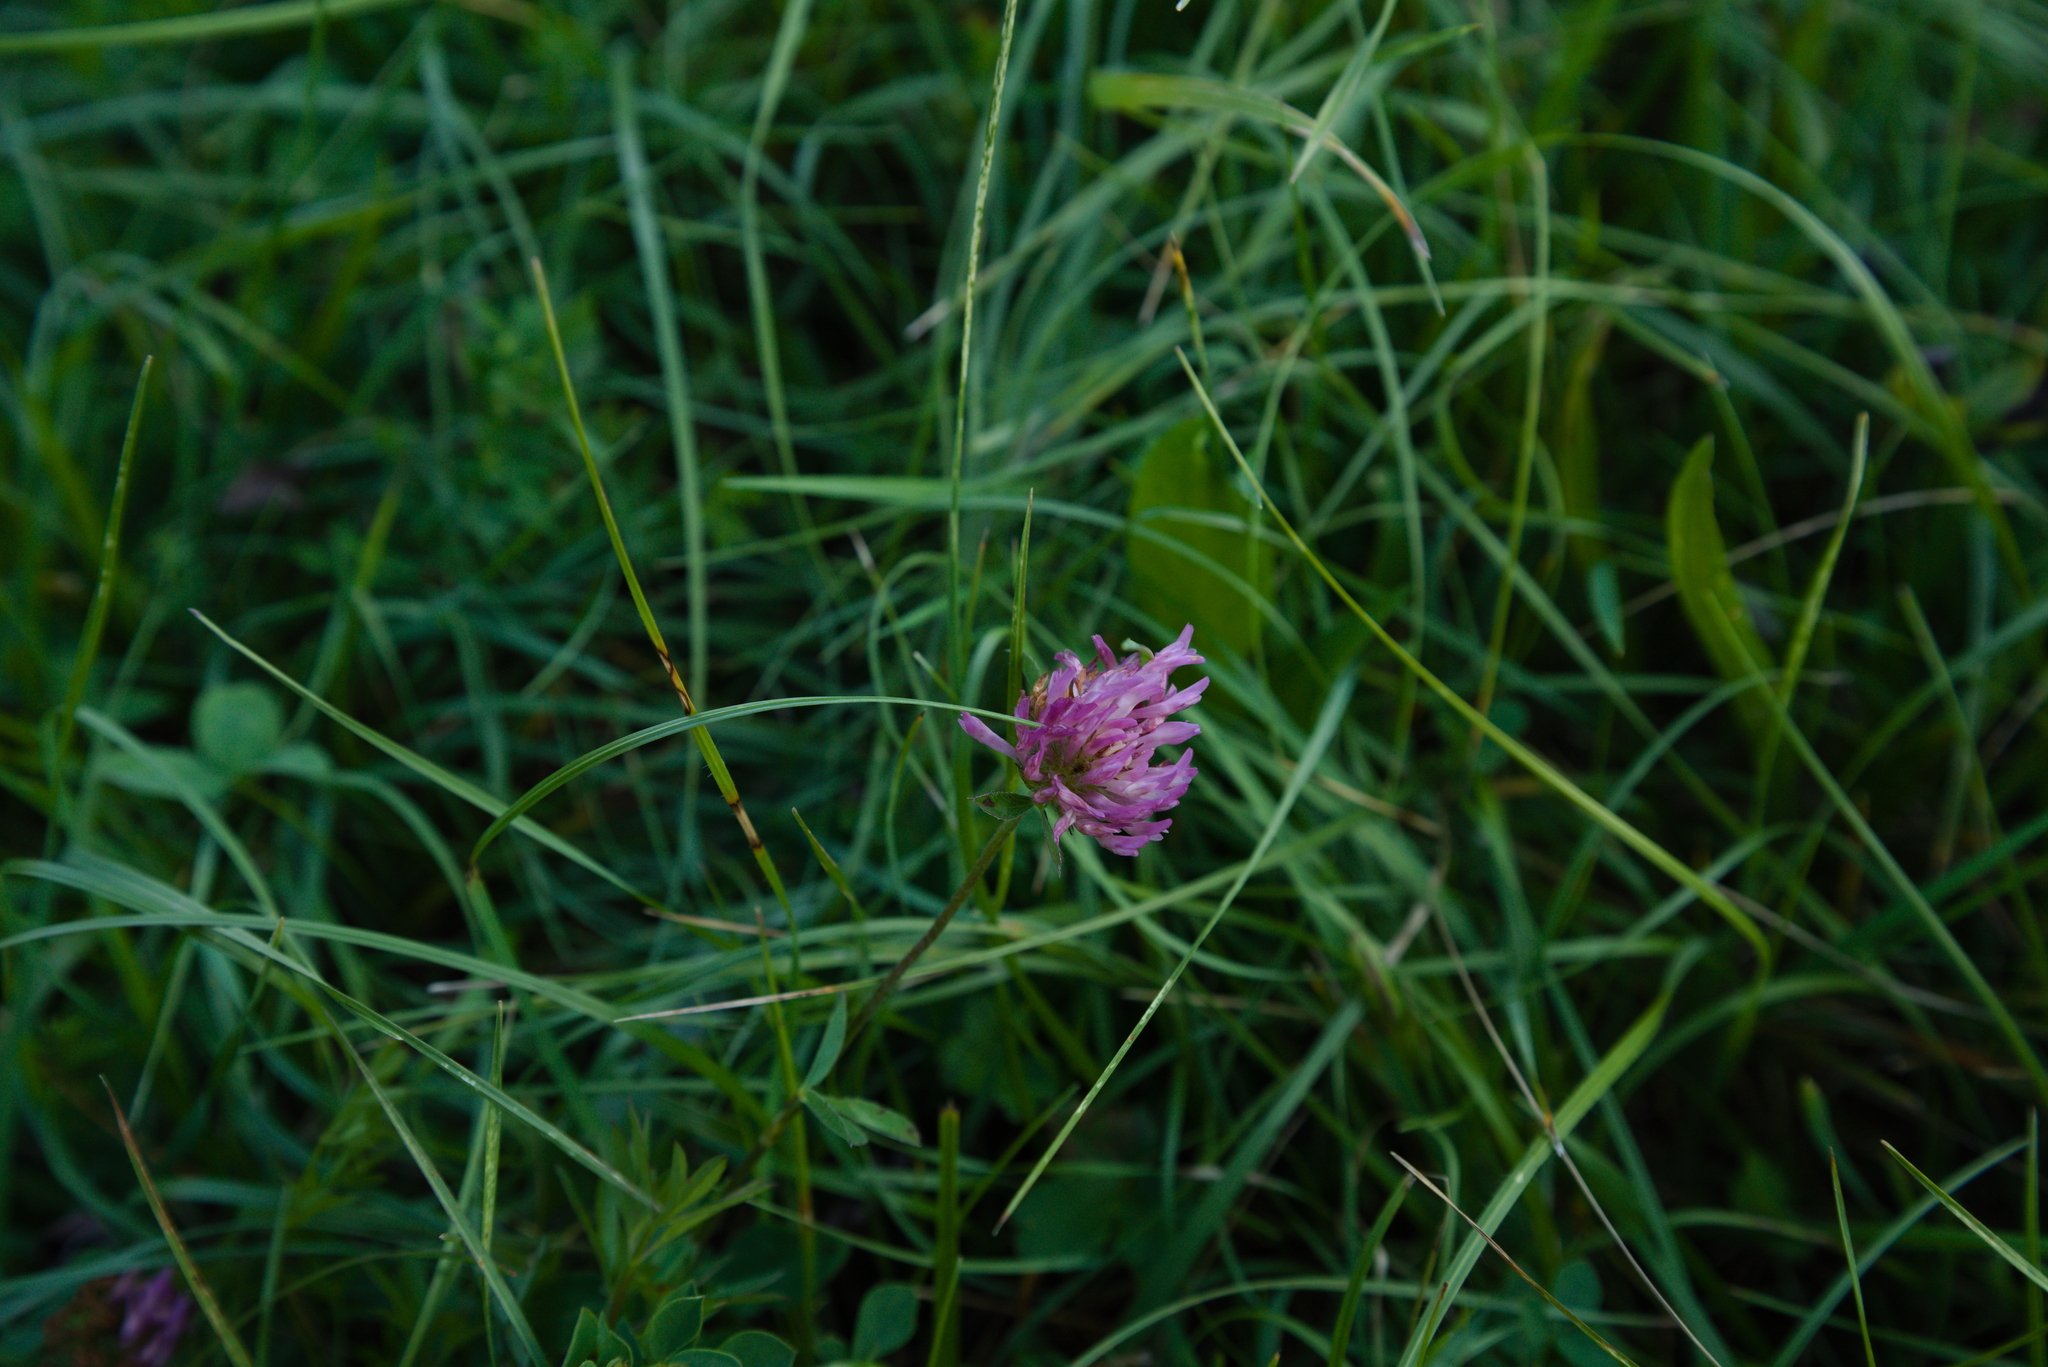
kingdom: Plantae
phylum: Tracheophyta
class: Magnoliopsida
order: Fabales
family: Fabaceae
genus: Trifolium
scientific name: Trifolium pratense
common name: Red clover
